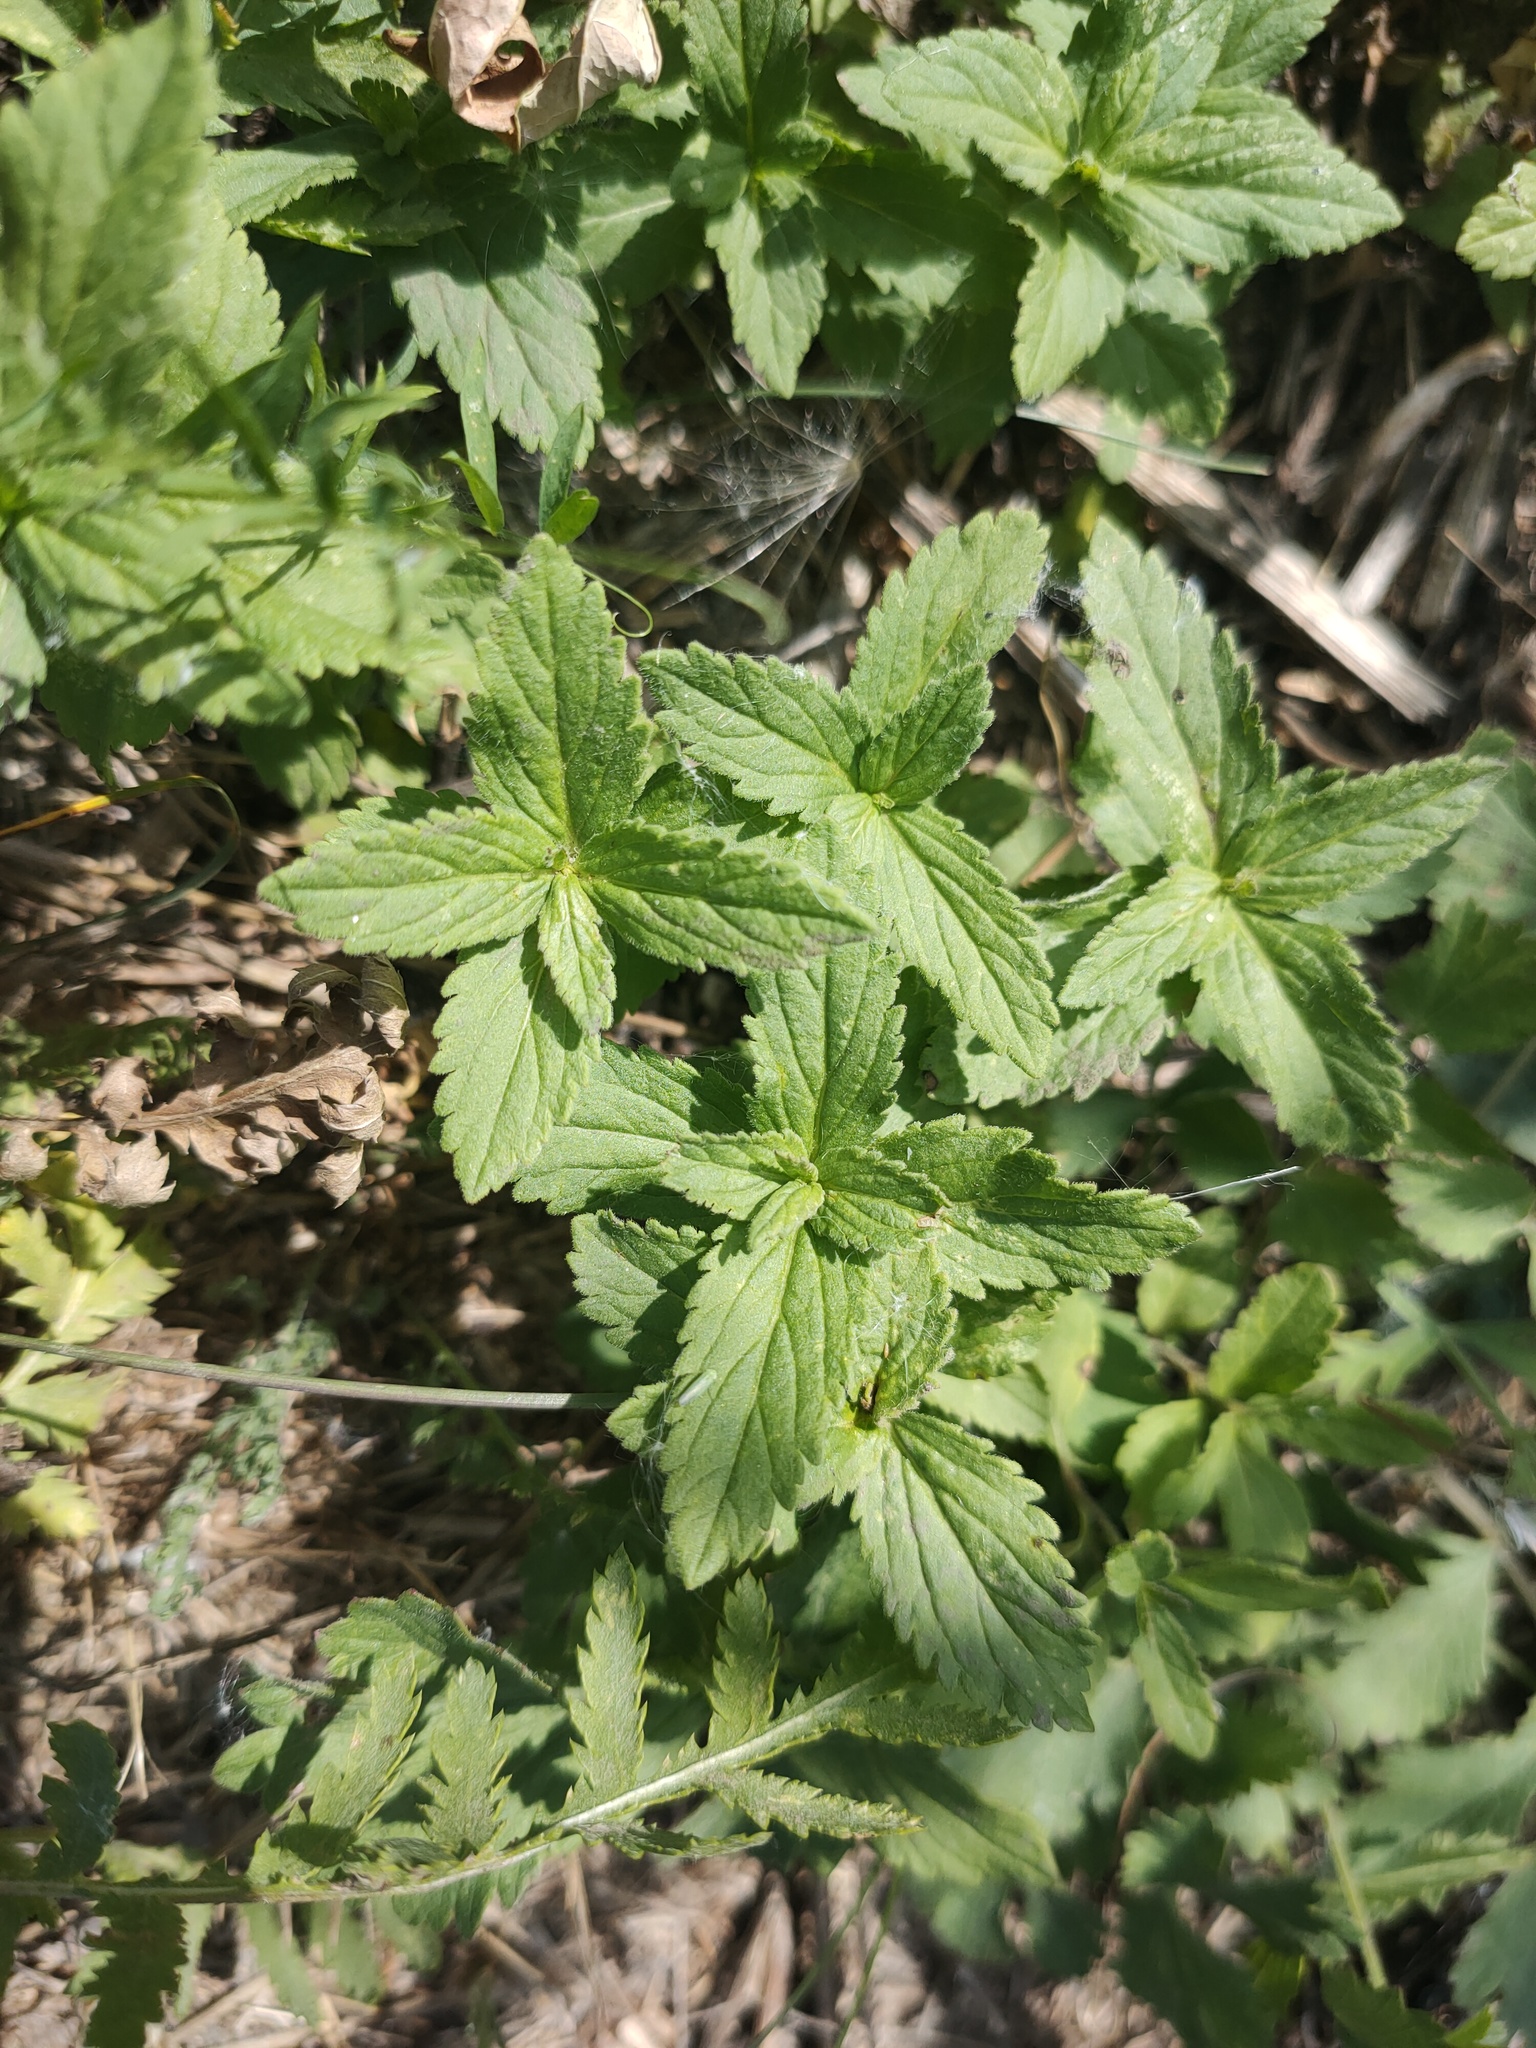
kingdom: Plantae
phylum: Tracheophyta
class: Magnoliopsida
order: Lamiales
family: Plantaginaceae
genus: Veronica
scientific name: Veronica teucrium
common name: Large speedwell
